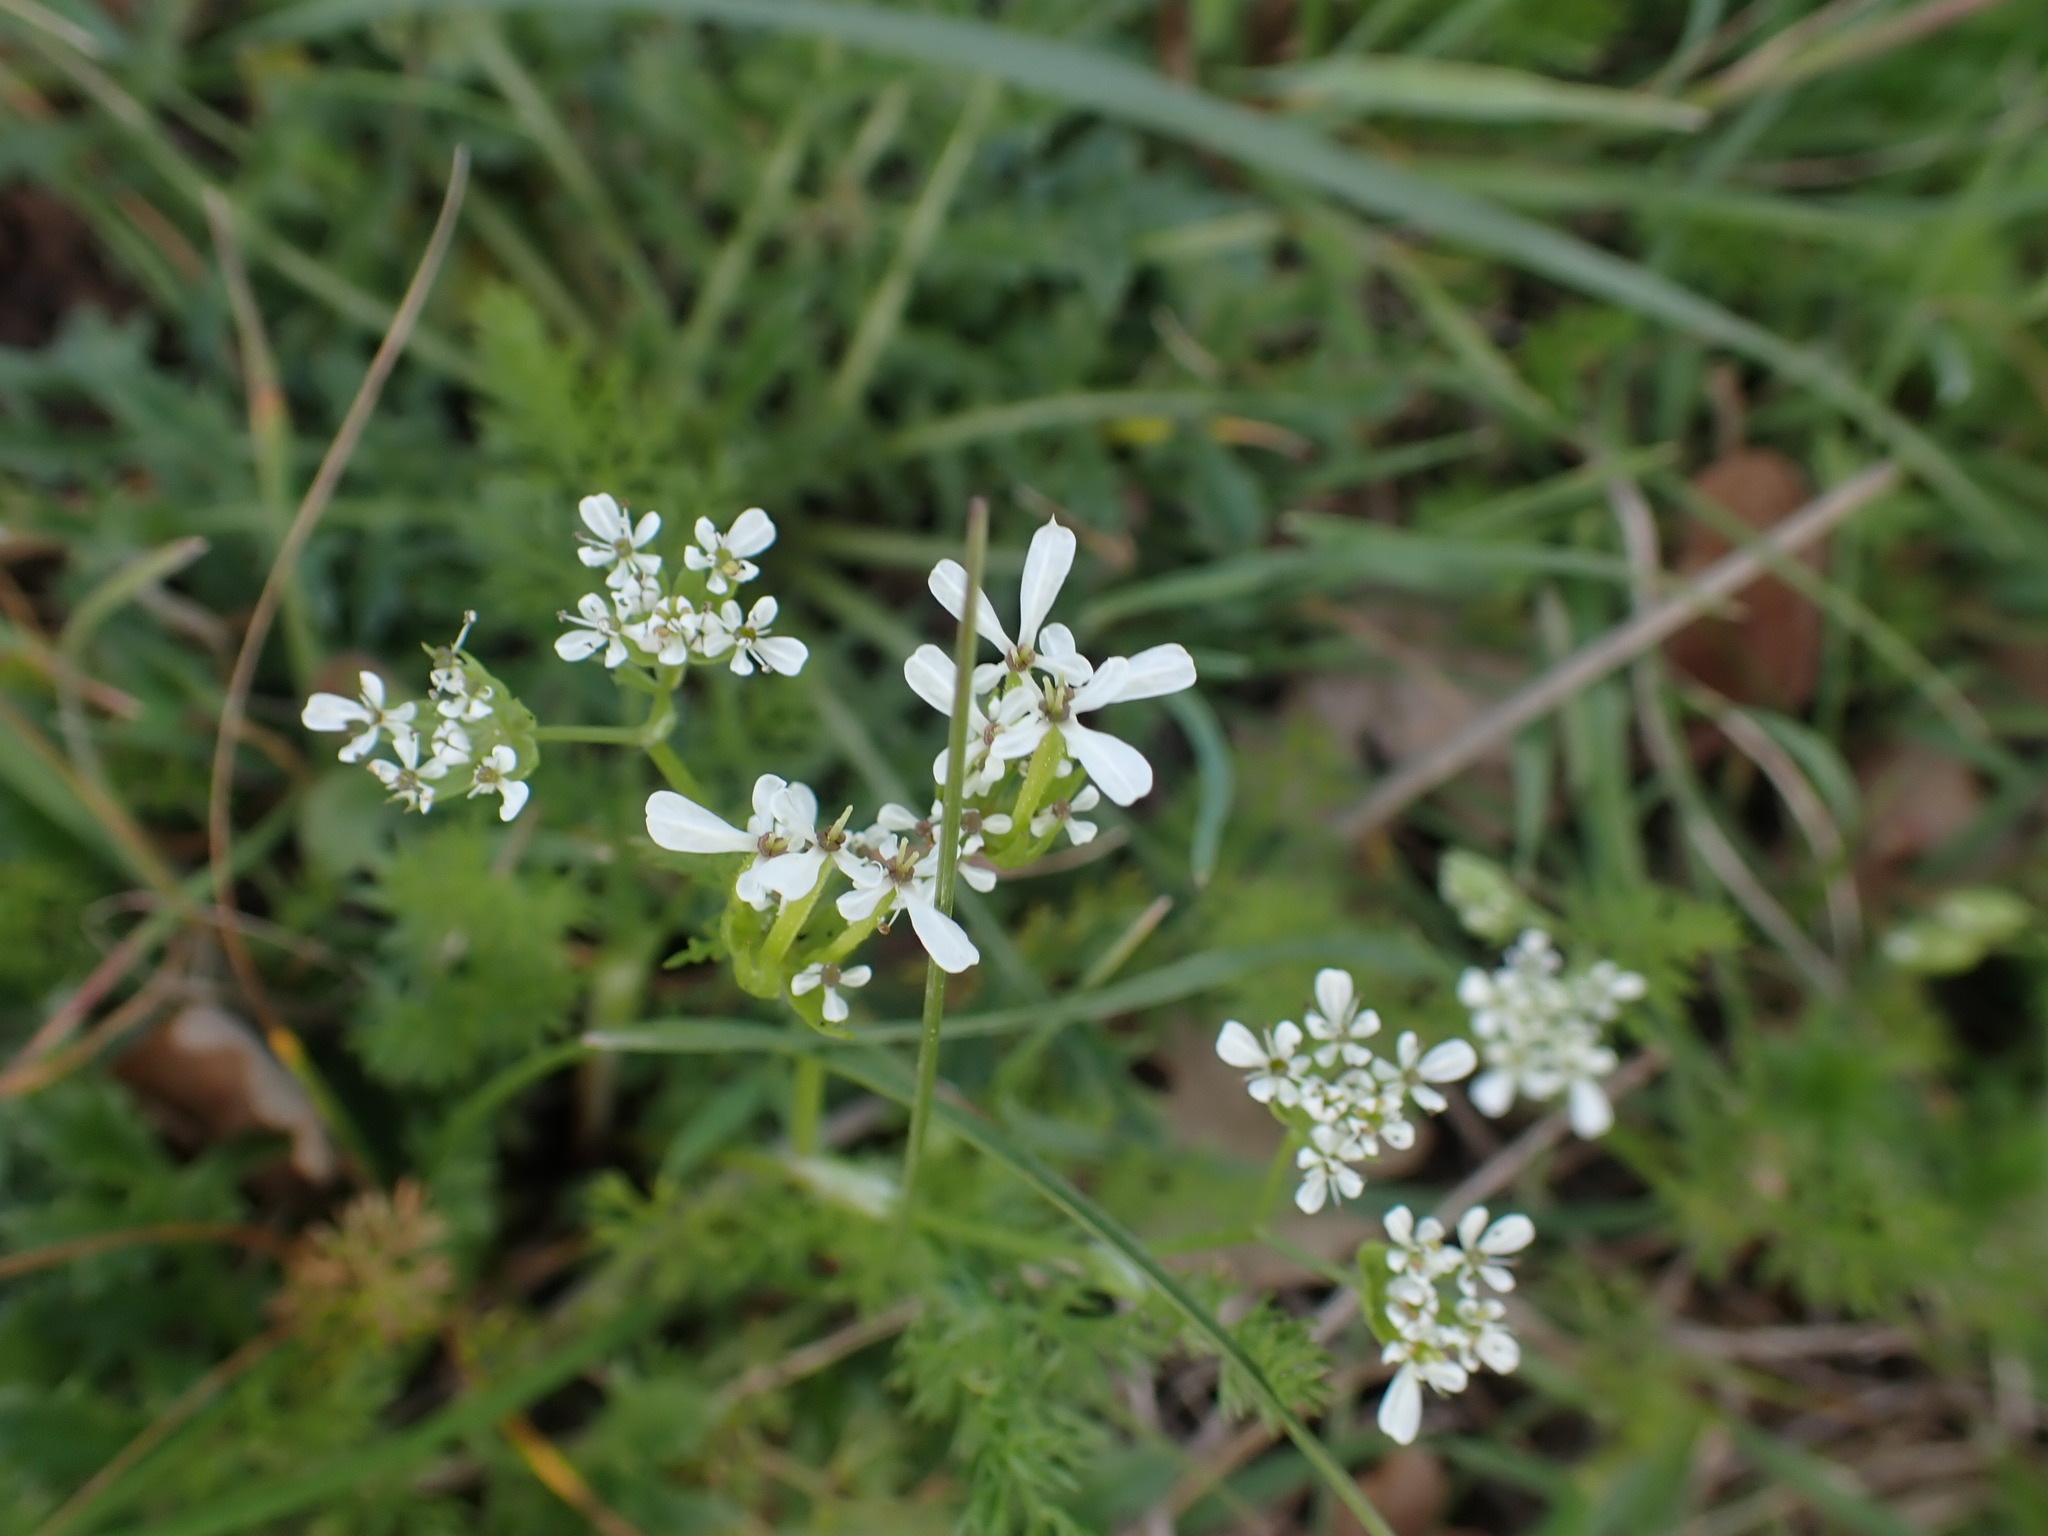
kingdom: Plantae
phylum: Tracheophyta
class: Magnoliopsida
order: Apiales
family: Apiaceae
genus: Scandix
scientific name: Scandix pecten-veneris
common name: Shepherd's-needle
